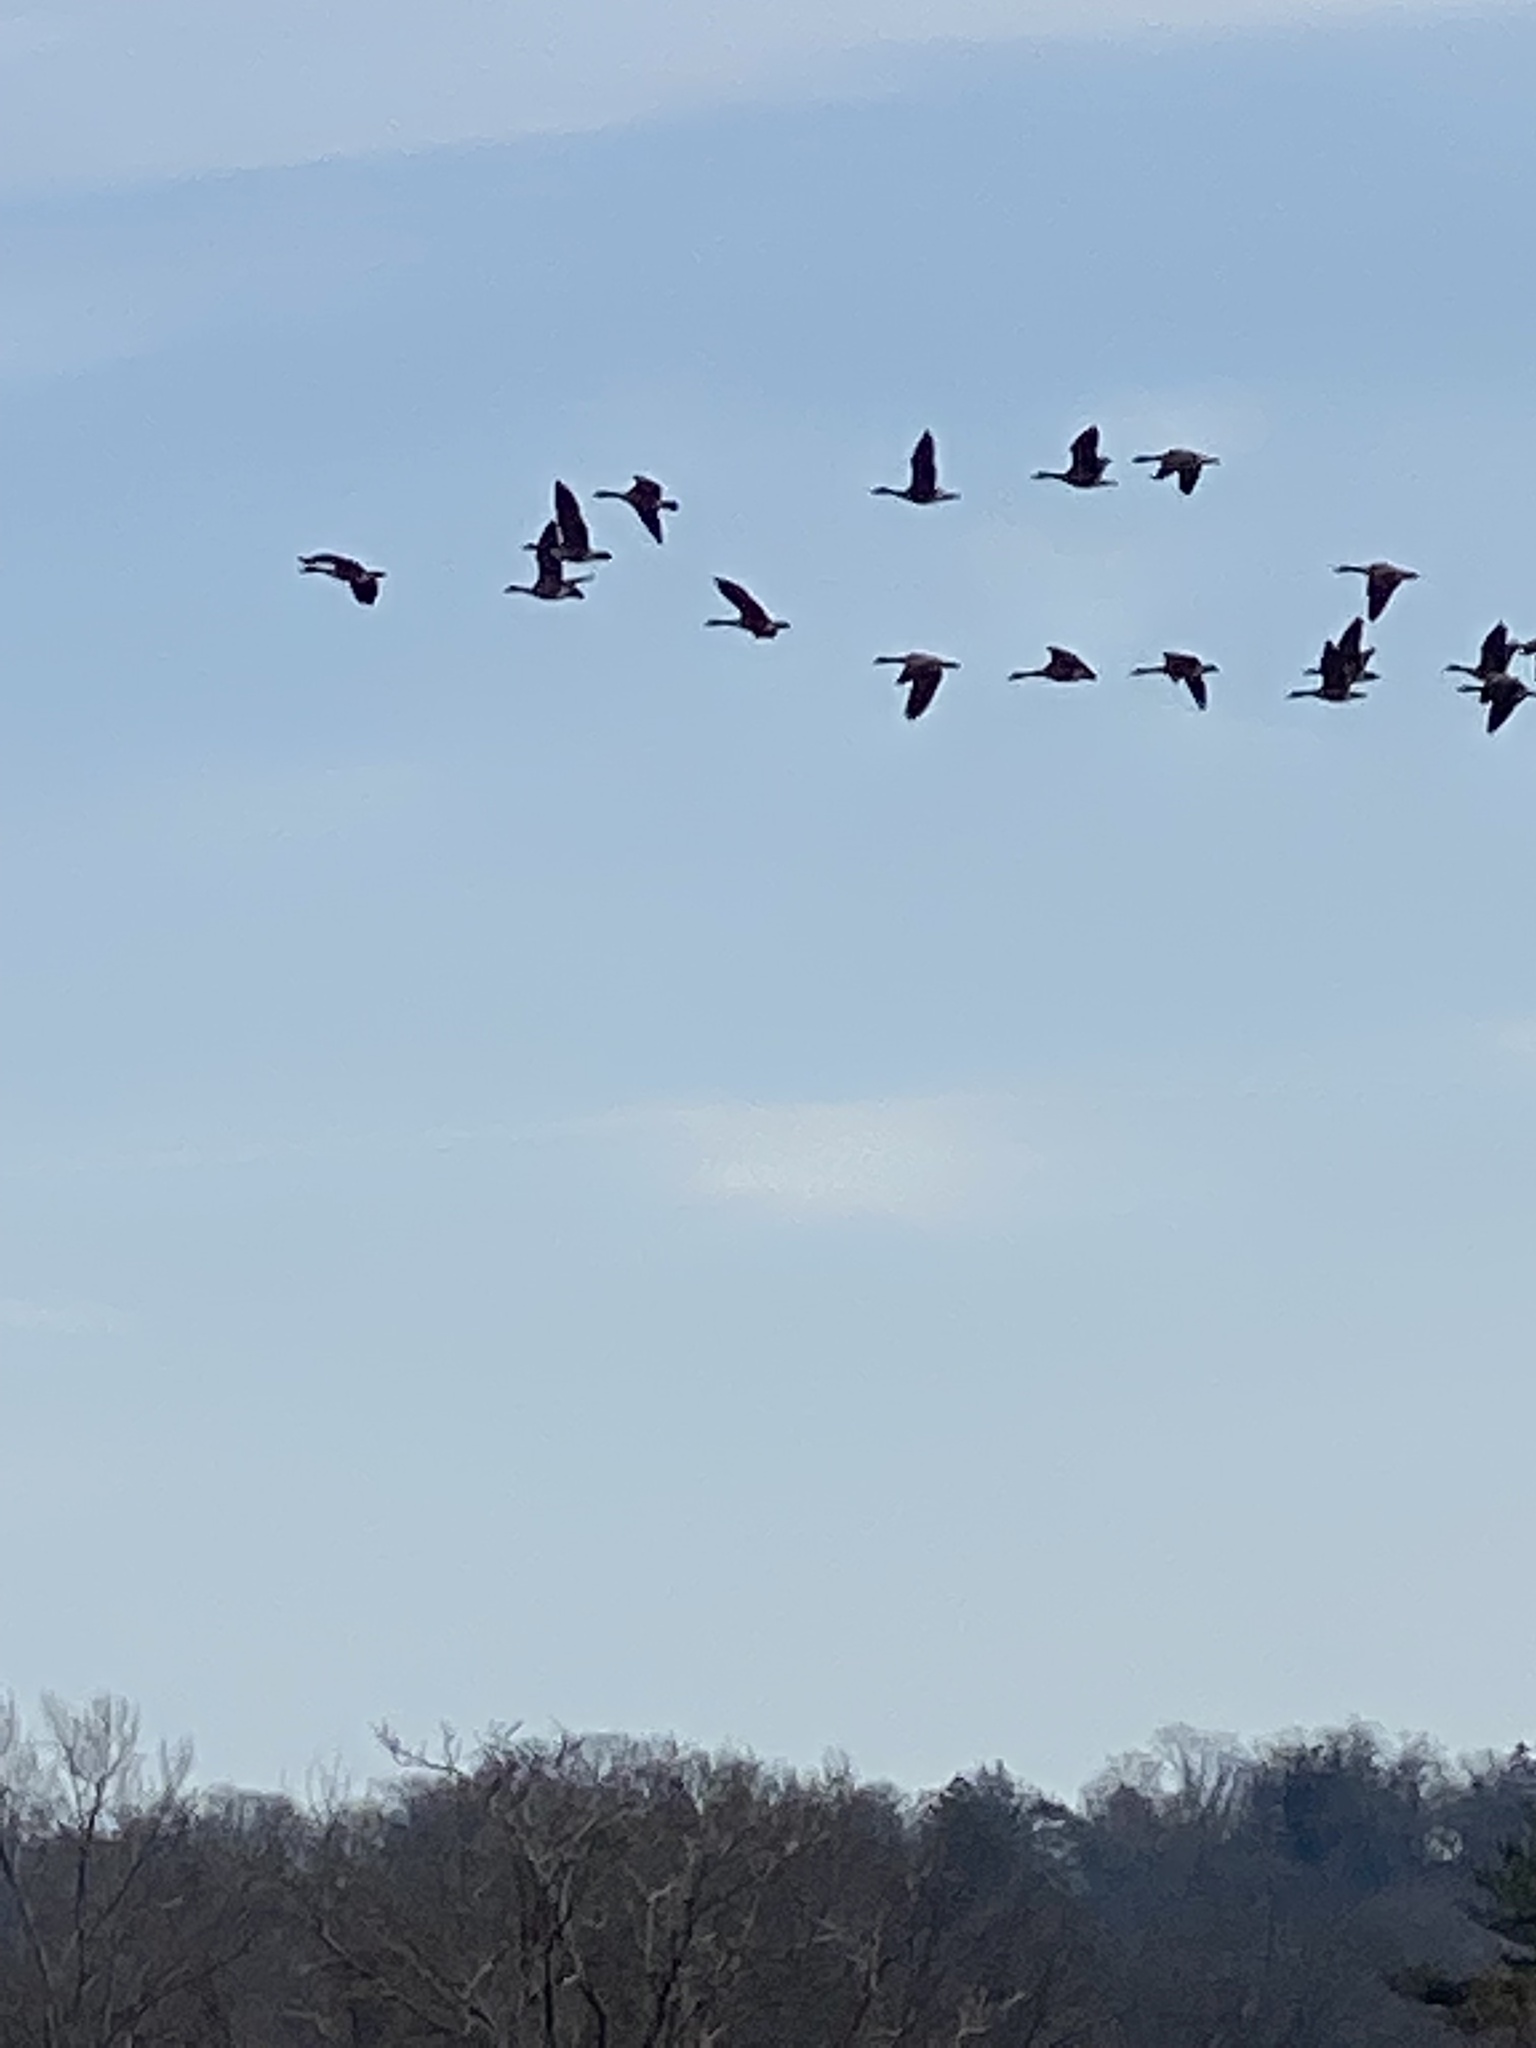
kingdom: Animalia
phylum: Chordata
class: Aves
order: Anseriformes
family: Anatidae
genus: Branta
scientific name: Branta canadensis
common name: Canada goose
